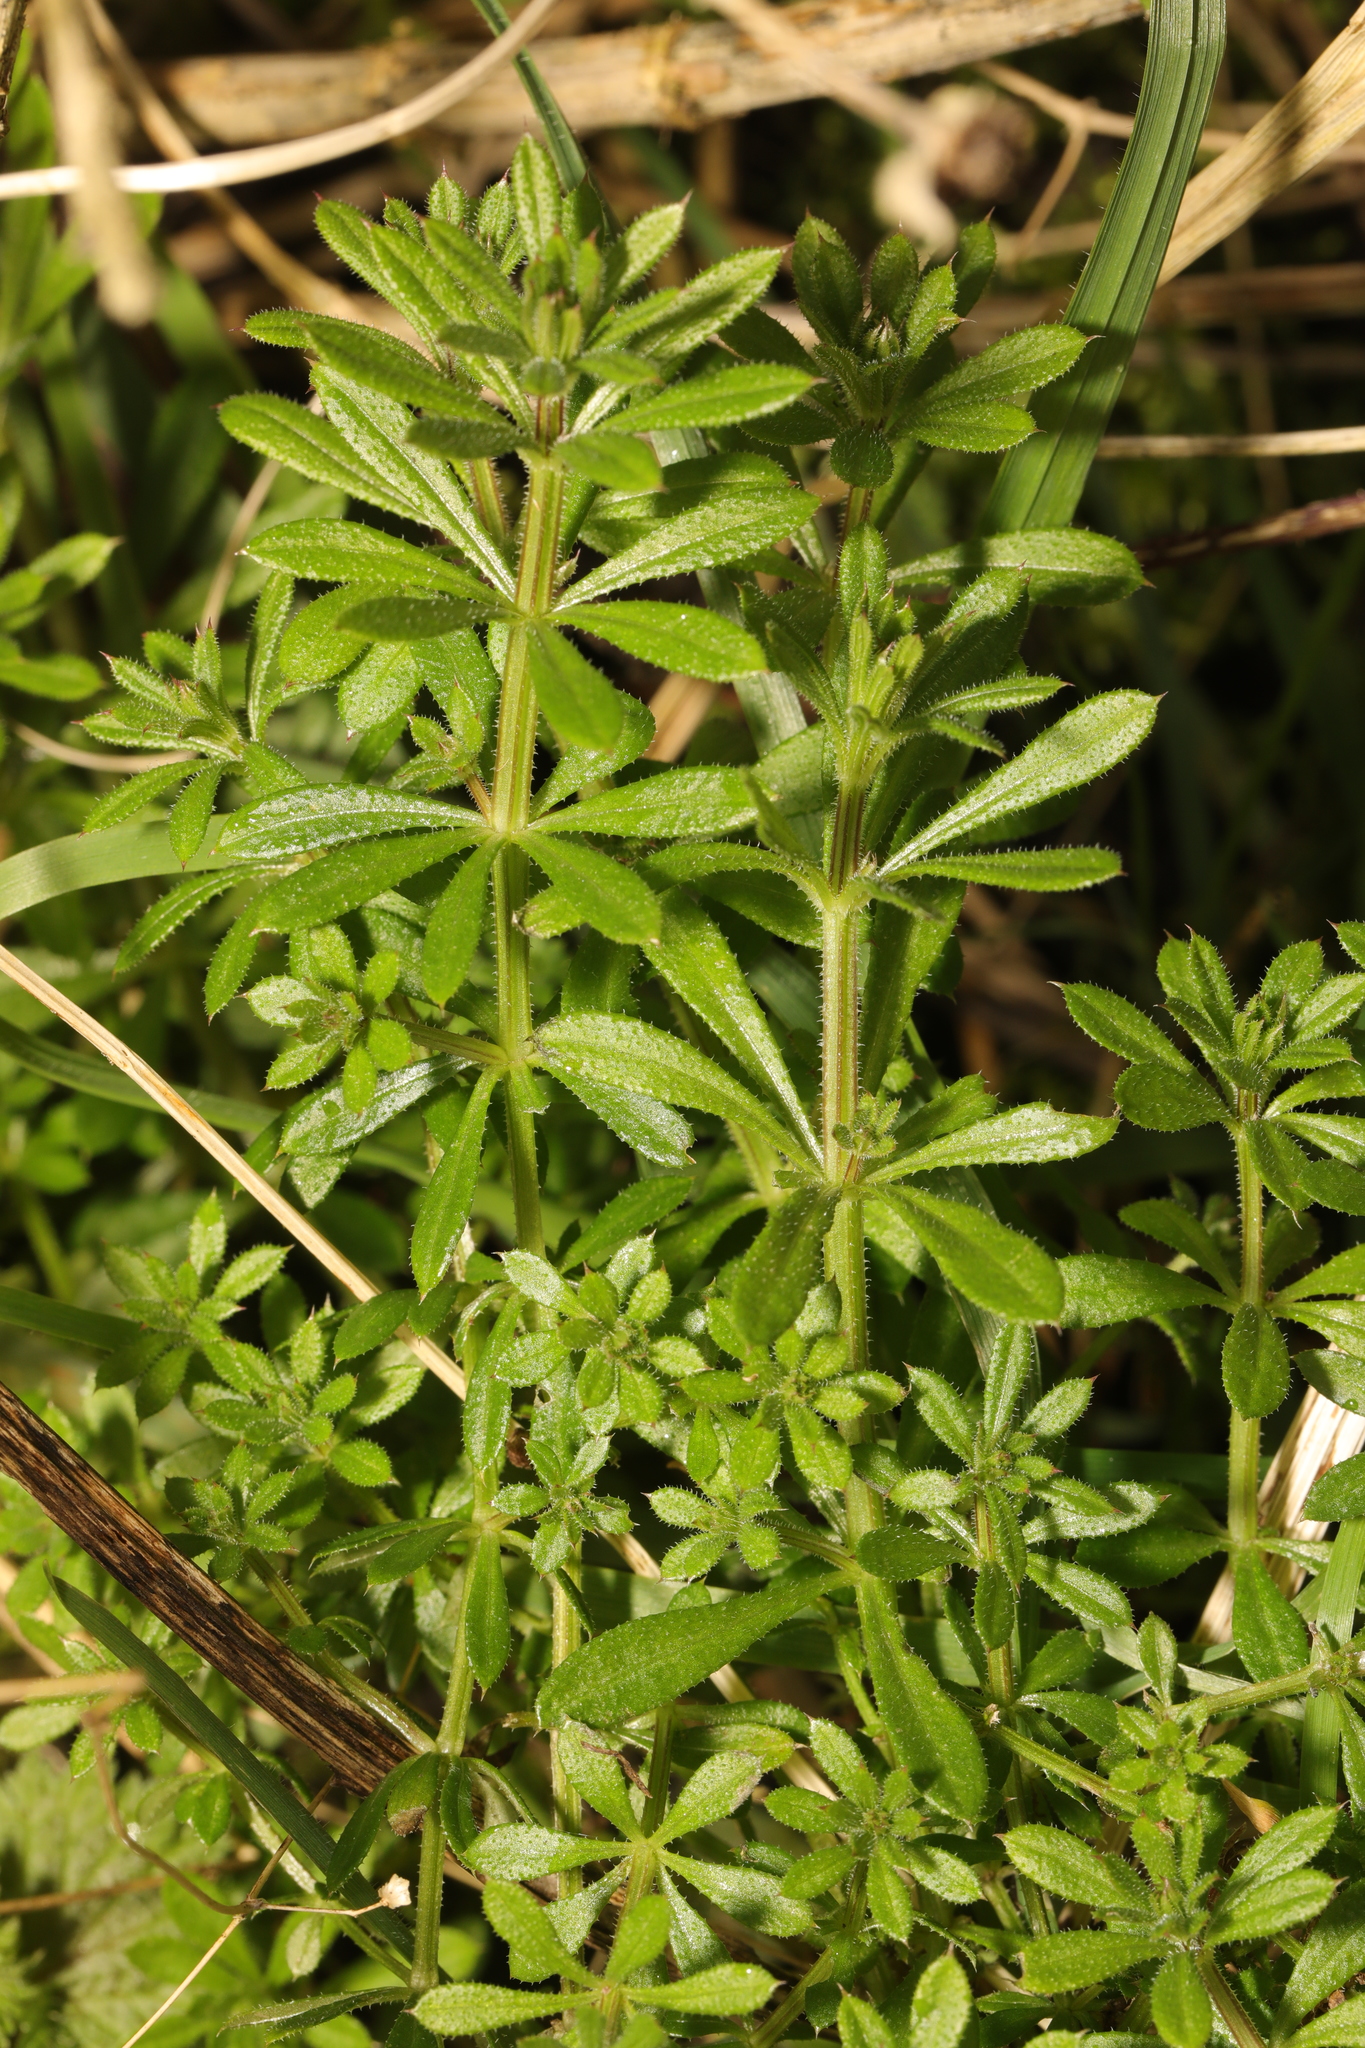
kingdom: Plantae
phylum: Tracheophyta
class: Magnoliopsida
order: Gentianales
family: Rubiaceae
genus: Galium
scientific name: Galium aparine
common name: Cleavers
